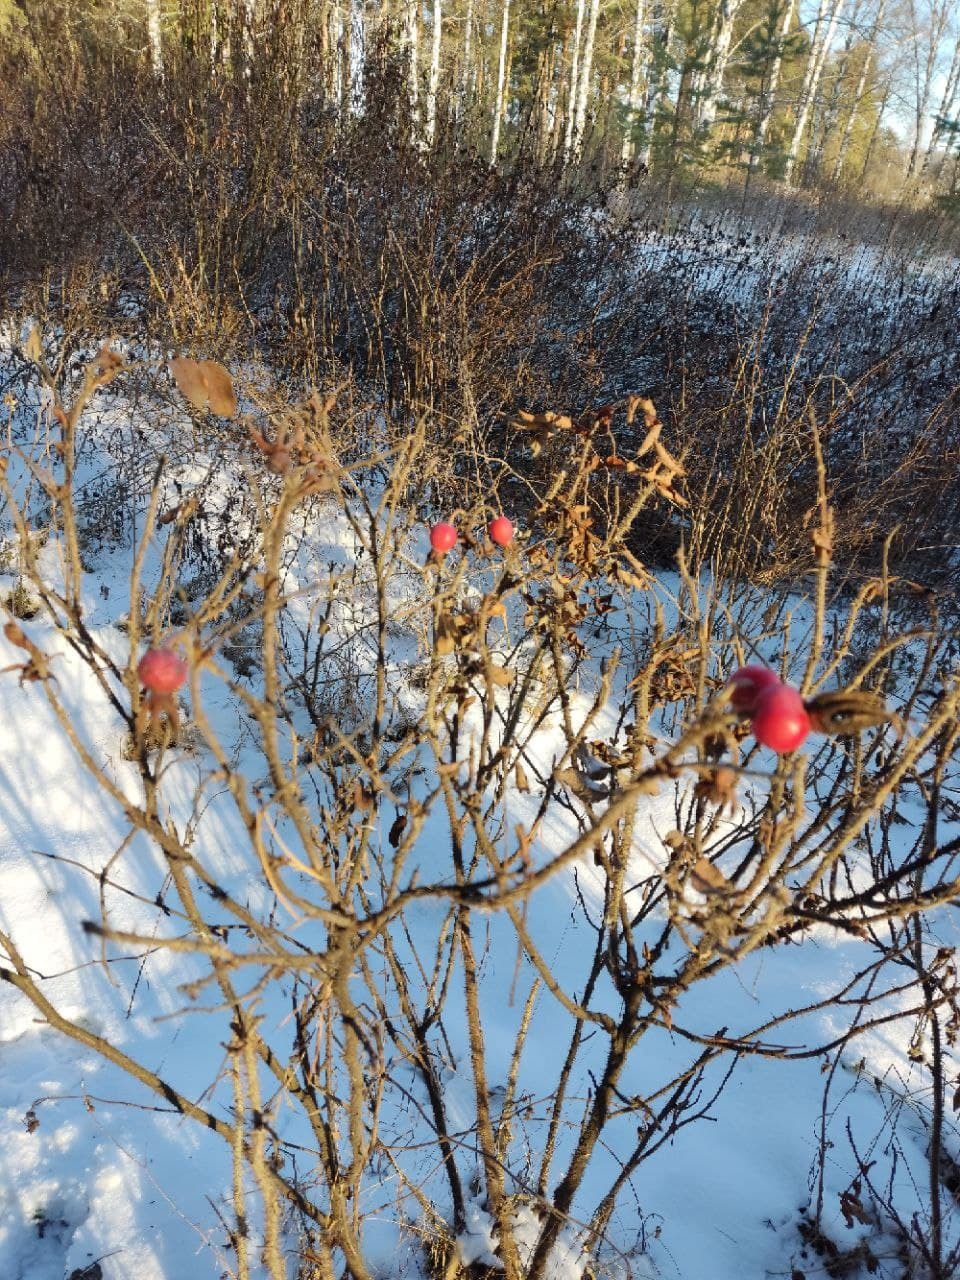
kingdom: Plantae
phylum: Tracheophyta
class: Magnoliopsida
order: Rosales
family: Rosaceae
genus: Rosa
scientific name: Rosa rugosa
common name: Japanese rose
